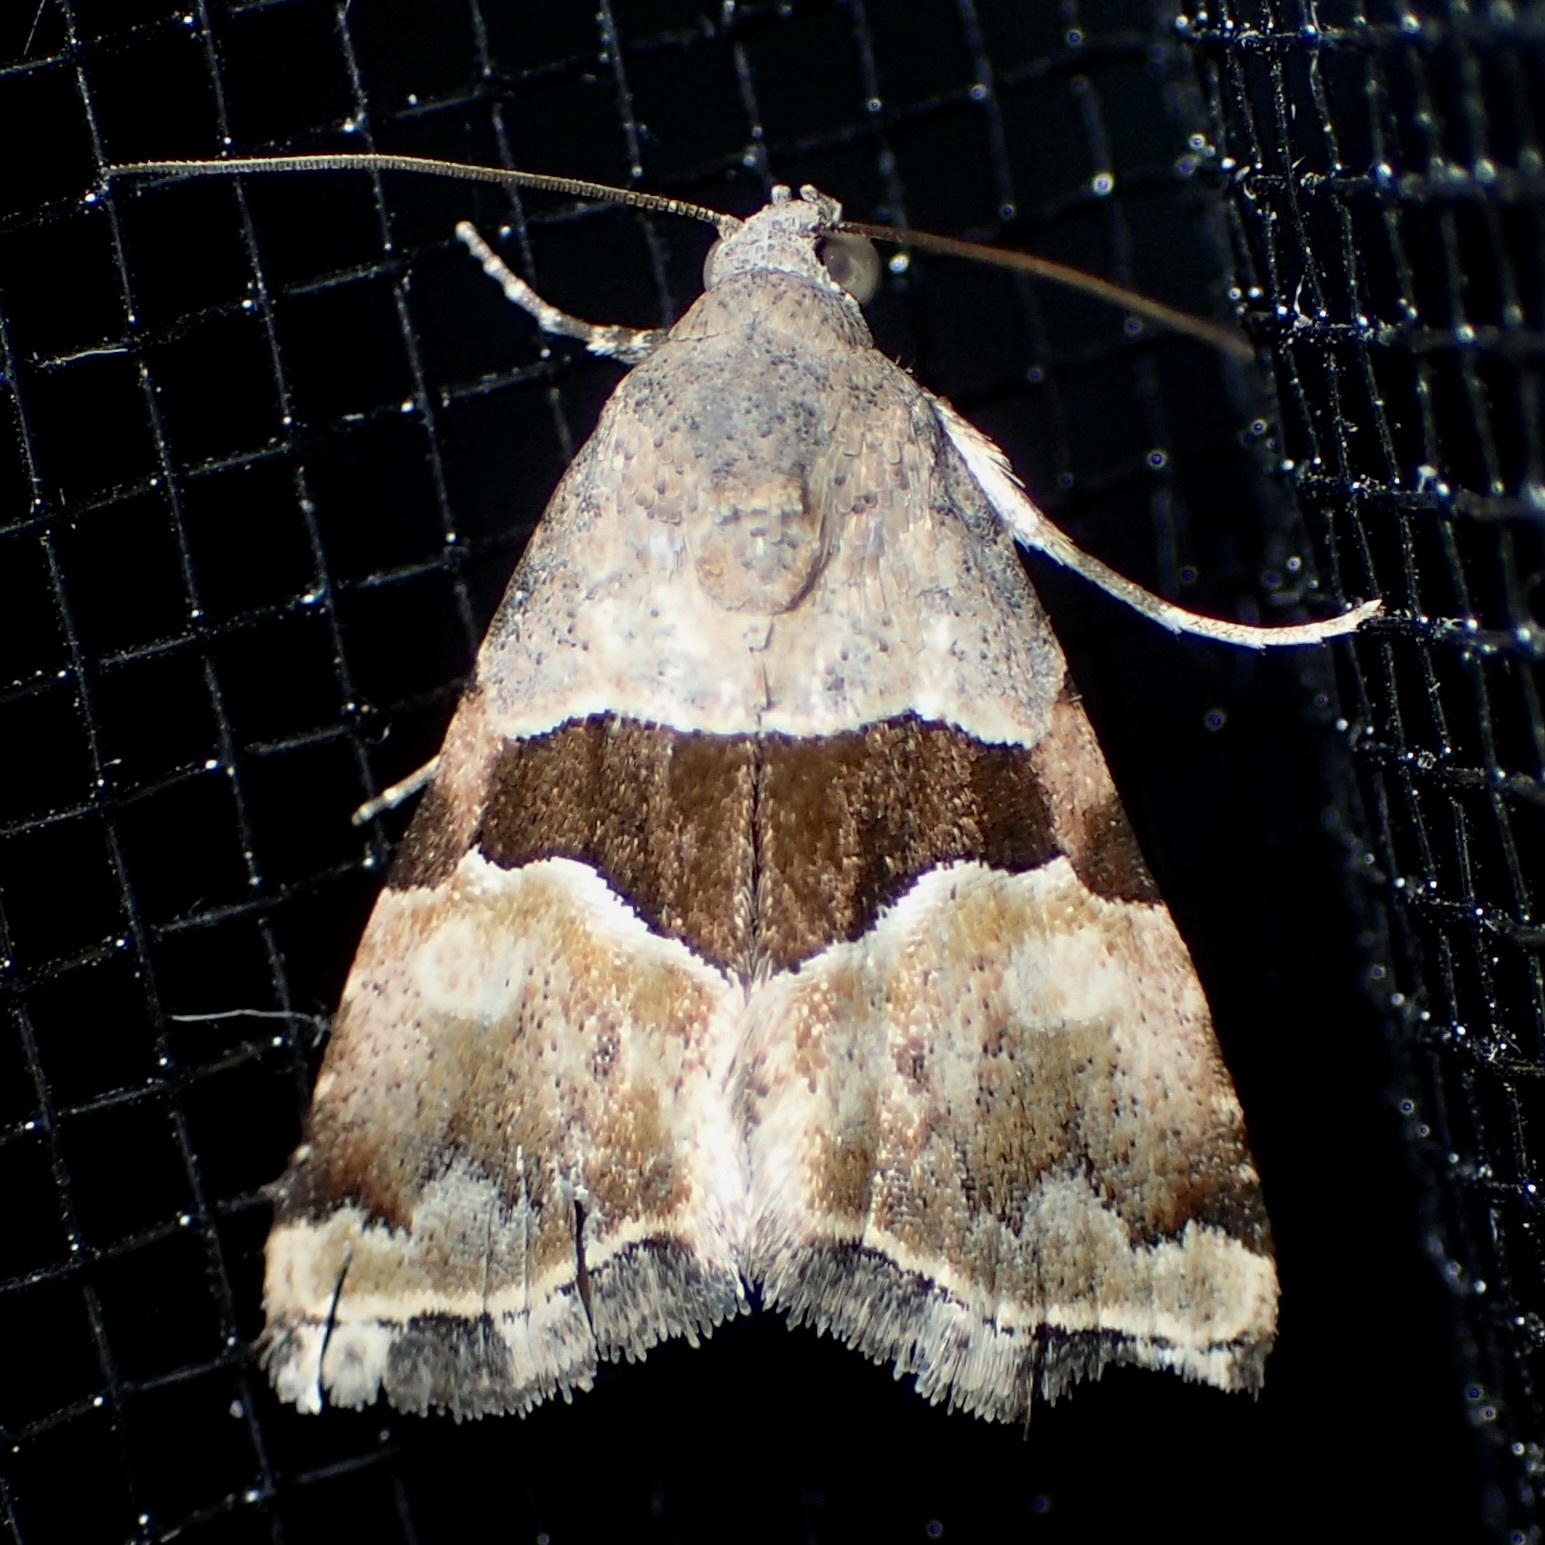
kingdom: Animalia
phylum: Arthropoda
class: Insecta
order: Lepidoptera
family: Noctuidae
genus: Cobubatha
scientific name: Cobubatha lixiva
